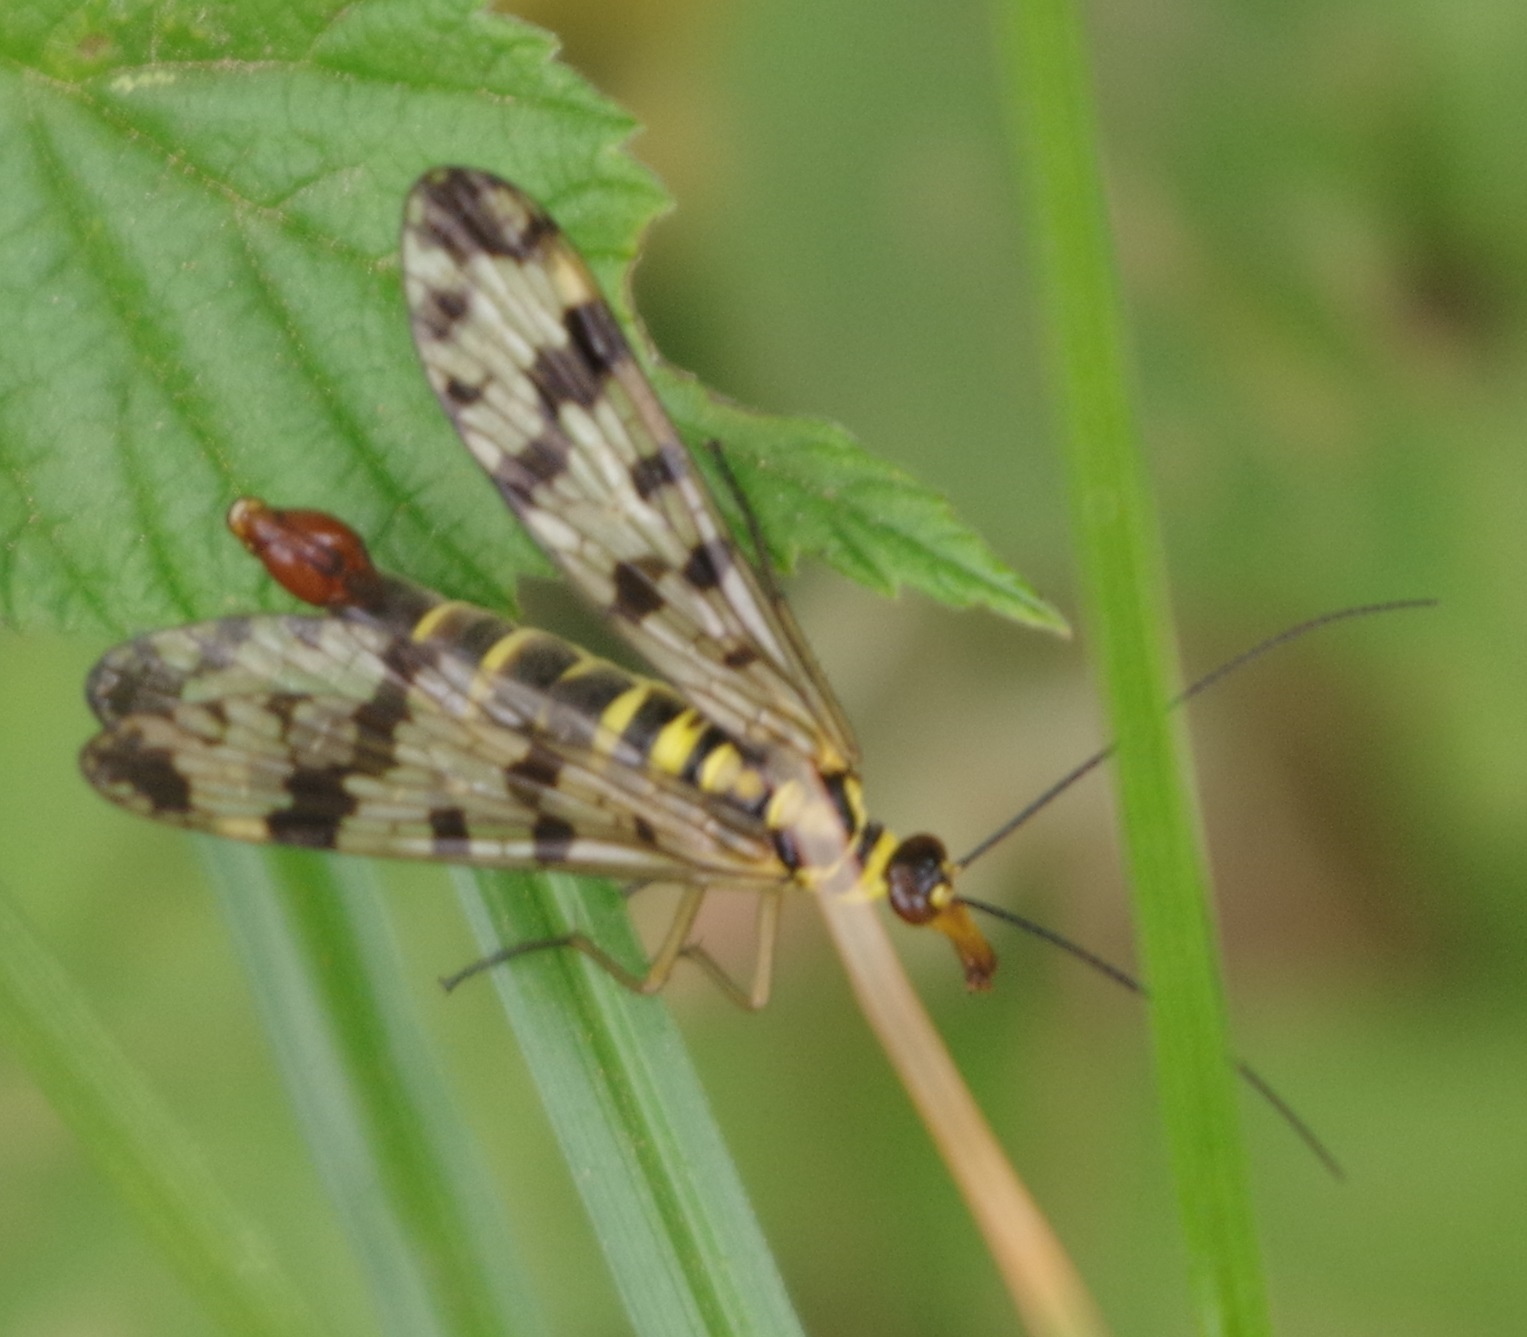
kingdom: Animalia
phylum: Arthropoda
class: Insecta
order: Mecoptera
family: Panorpidae
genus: Panorpa
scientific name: Panorpa communis
